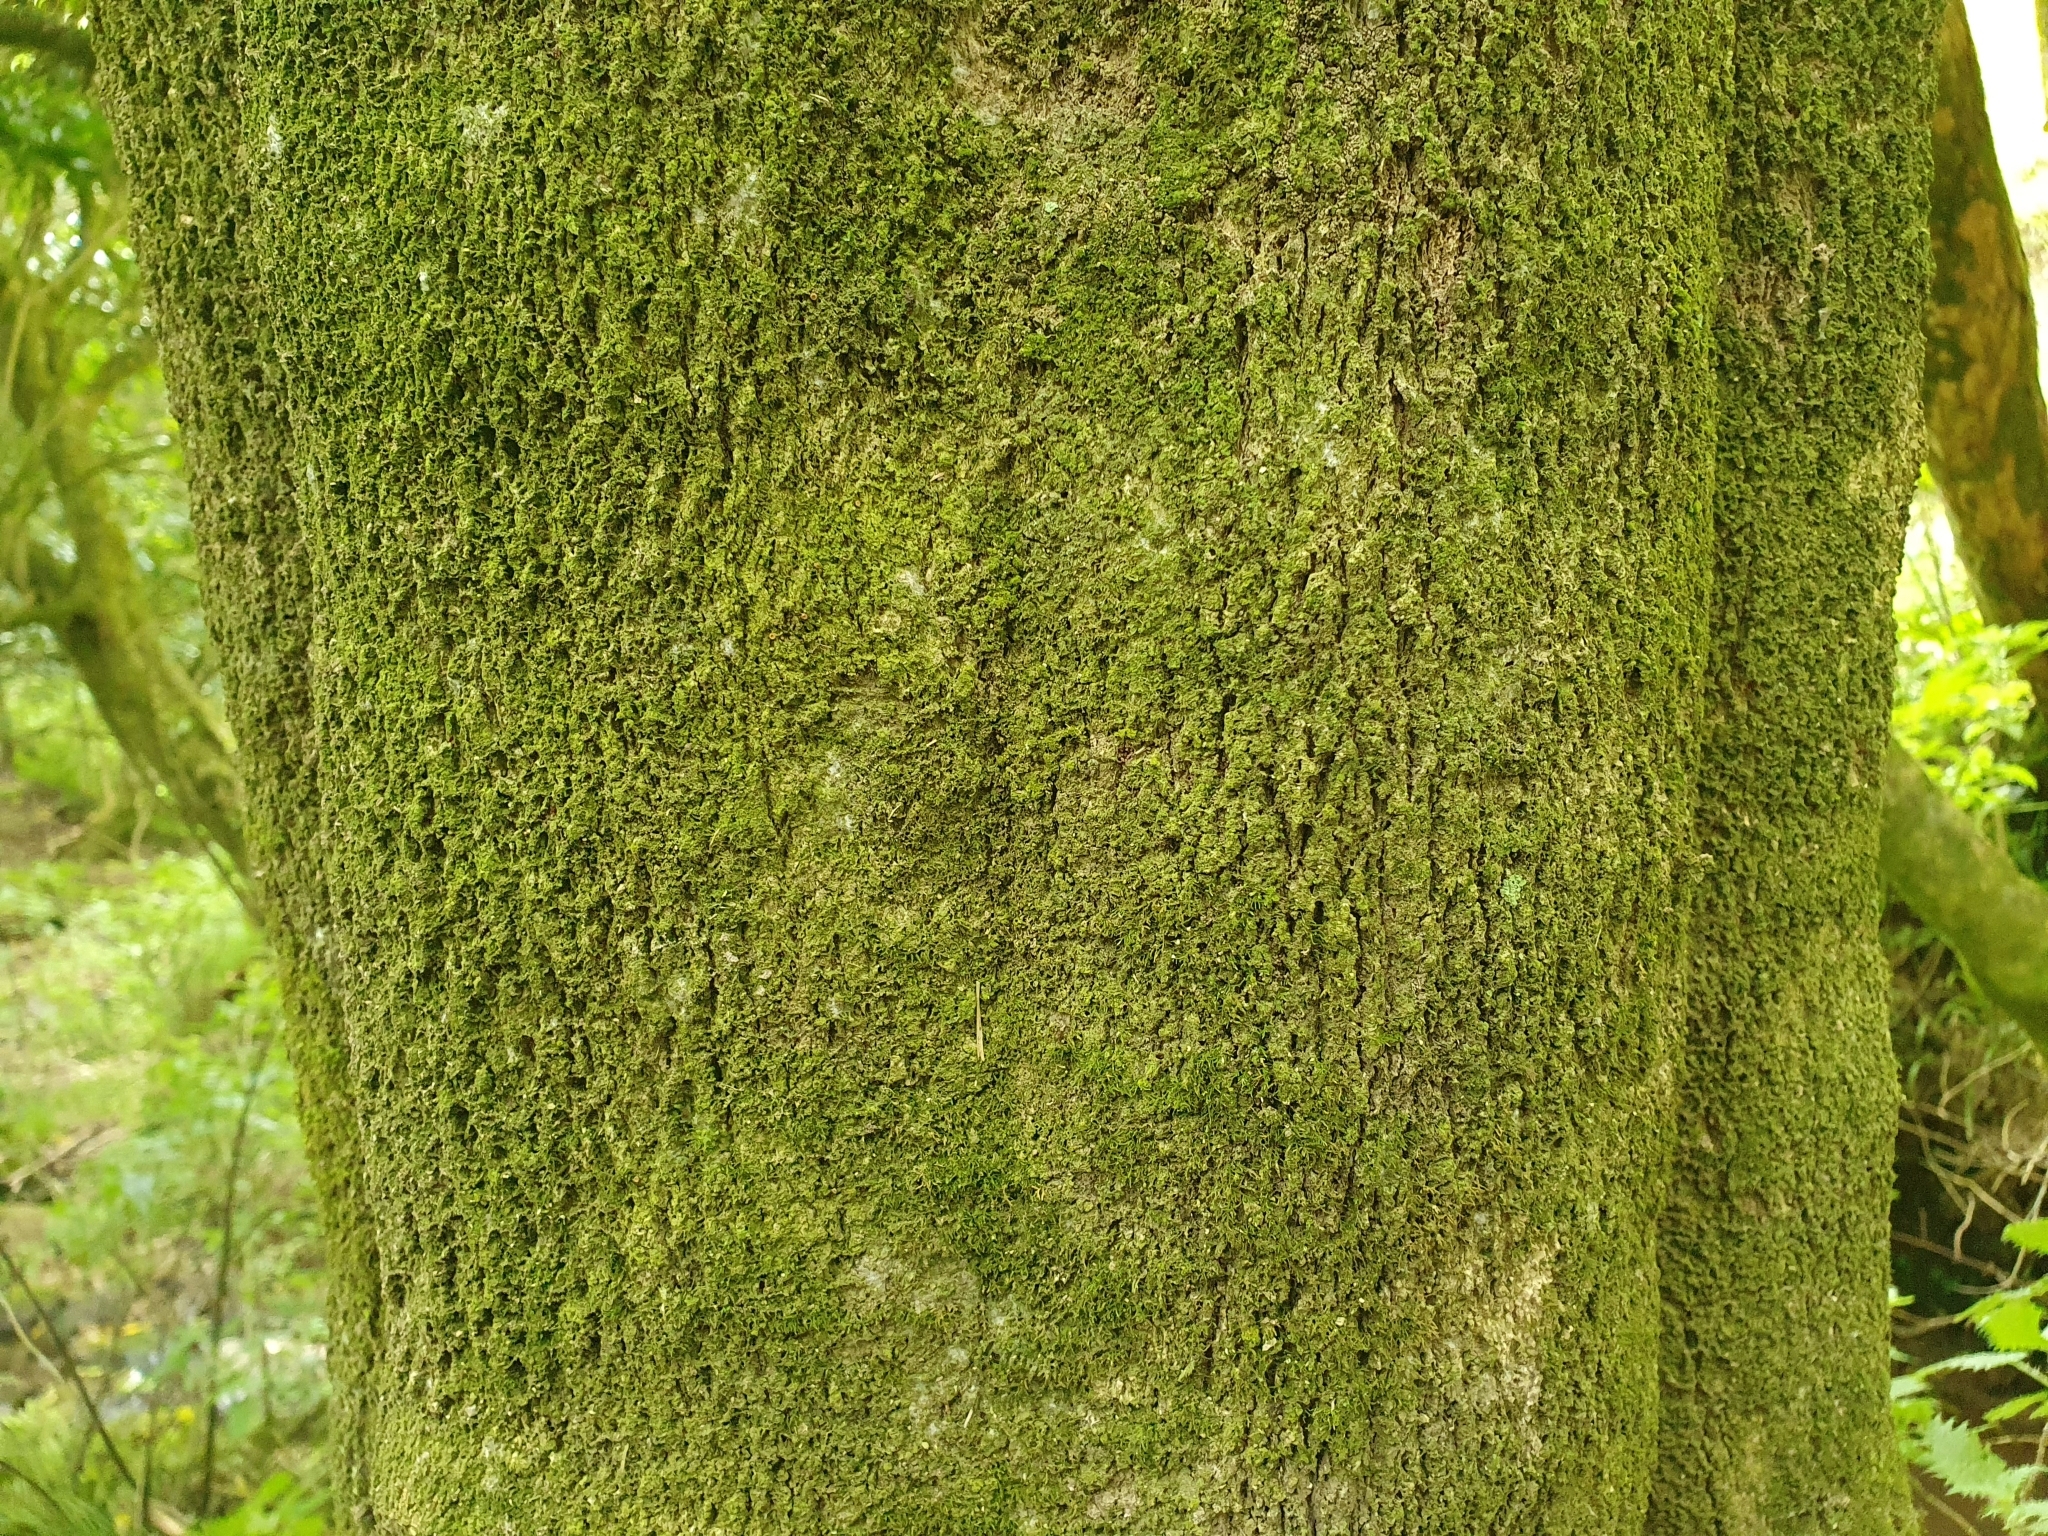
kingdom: Plantae
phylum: Tracheophyta
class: Magnoliopsida
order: Malpighiales
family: Violaceae
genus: Melicytus
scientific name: Melicytus ramiflorus
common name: Mahoe
